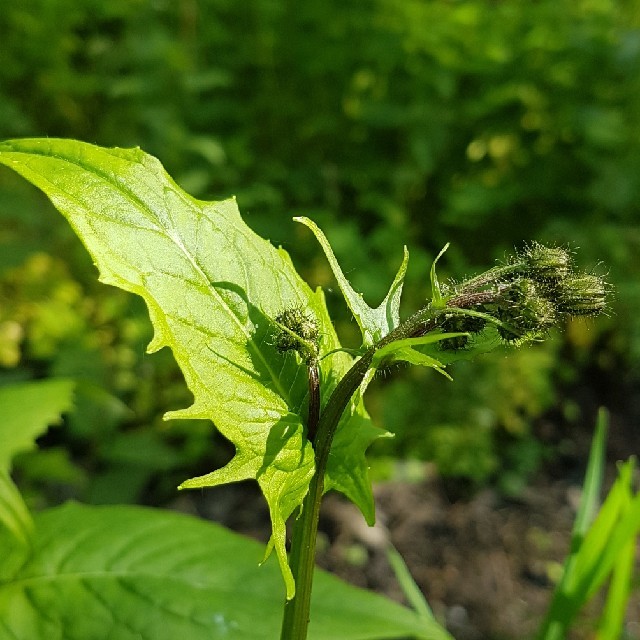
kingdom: Plantae
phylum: Tracheophyta
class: Magnoliopsida
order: Asterales
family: Asteraceae
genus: Crepis
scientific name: Crepis paludosa
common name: Marsh hawk's-beard
